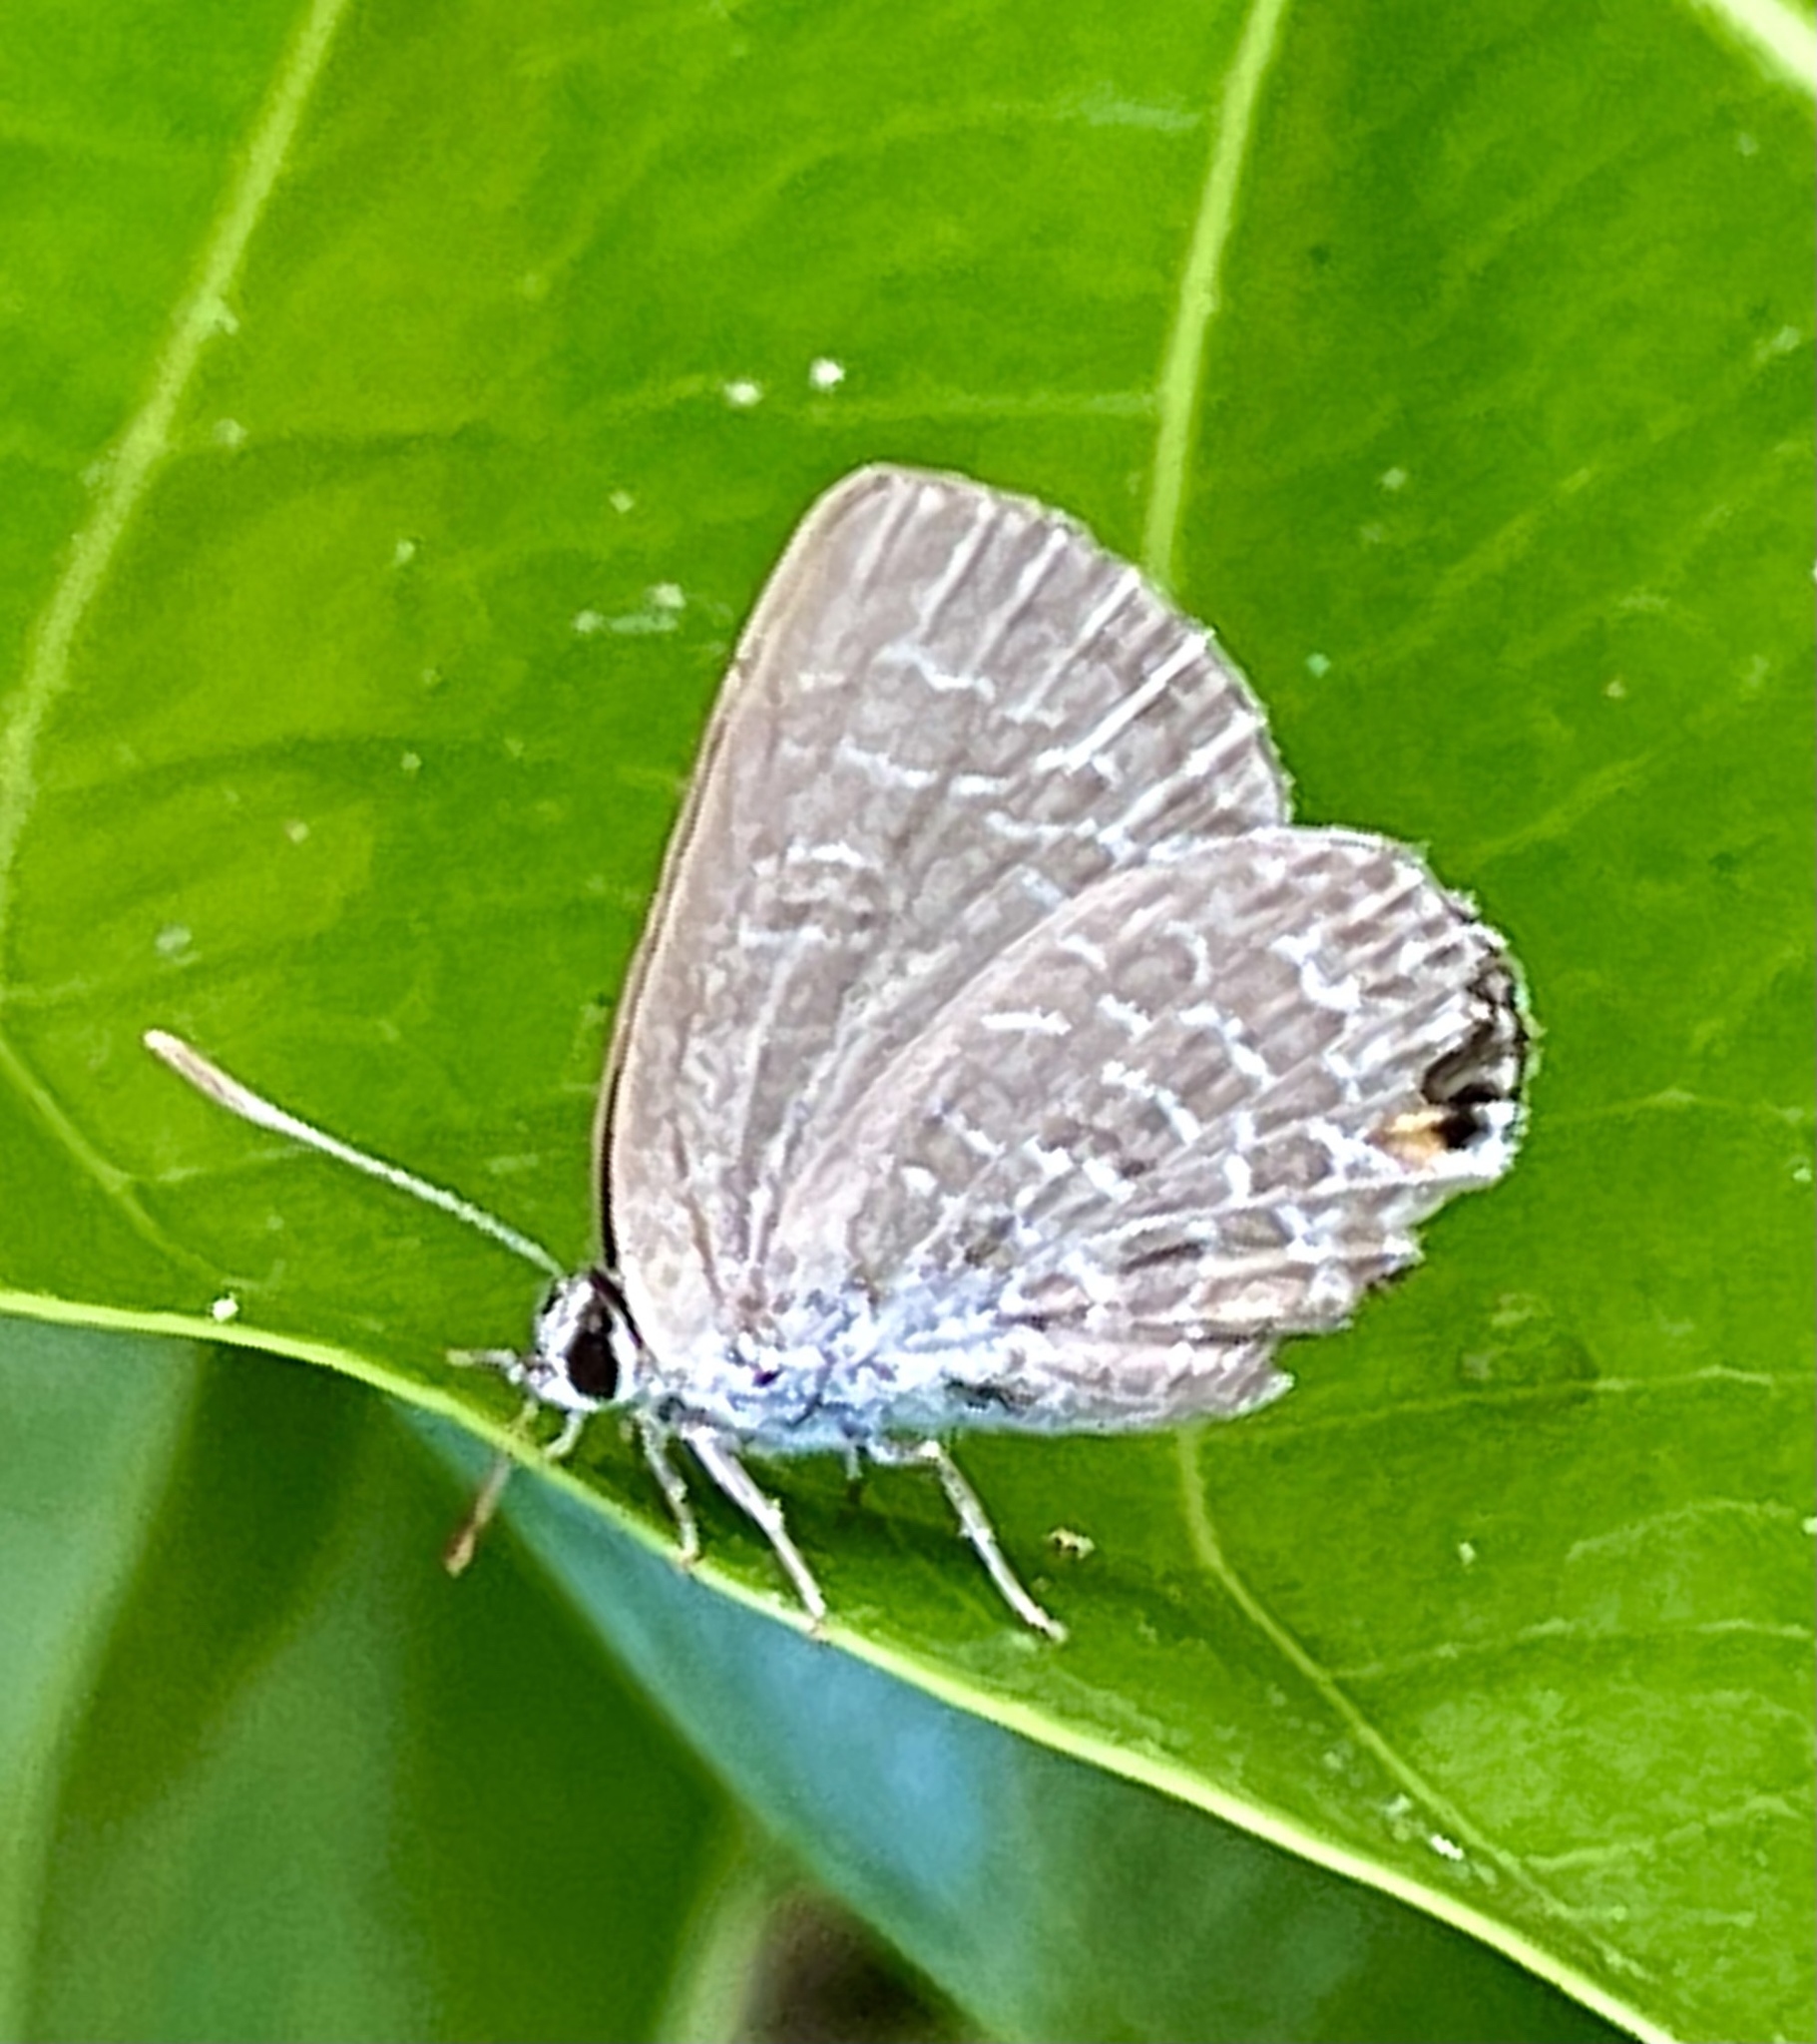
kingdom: Animalia
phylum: Arthropoda
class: Insecta
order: Lepidoptera
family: Lycaenidae
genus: Jamides
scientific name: Jamides phaseli
